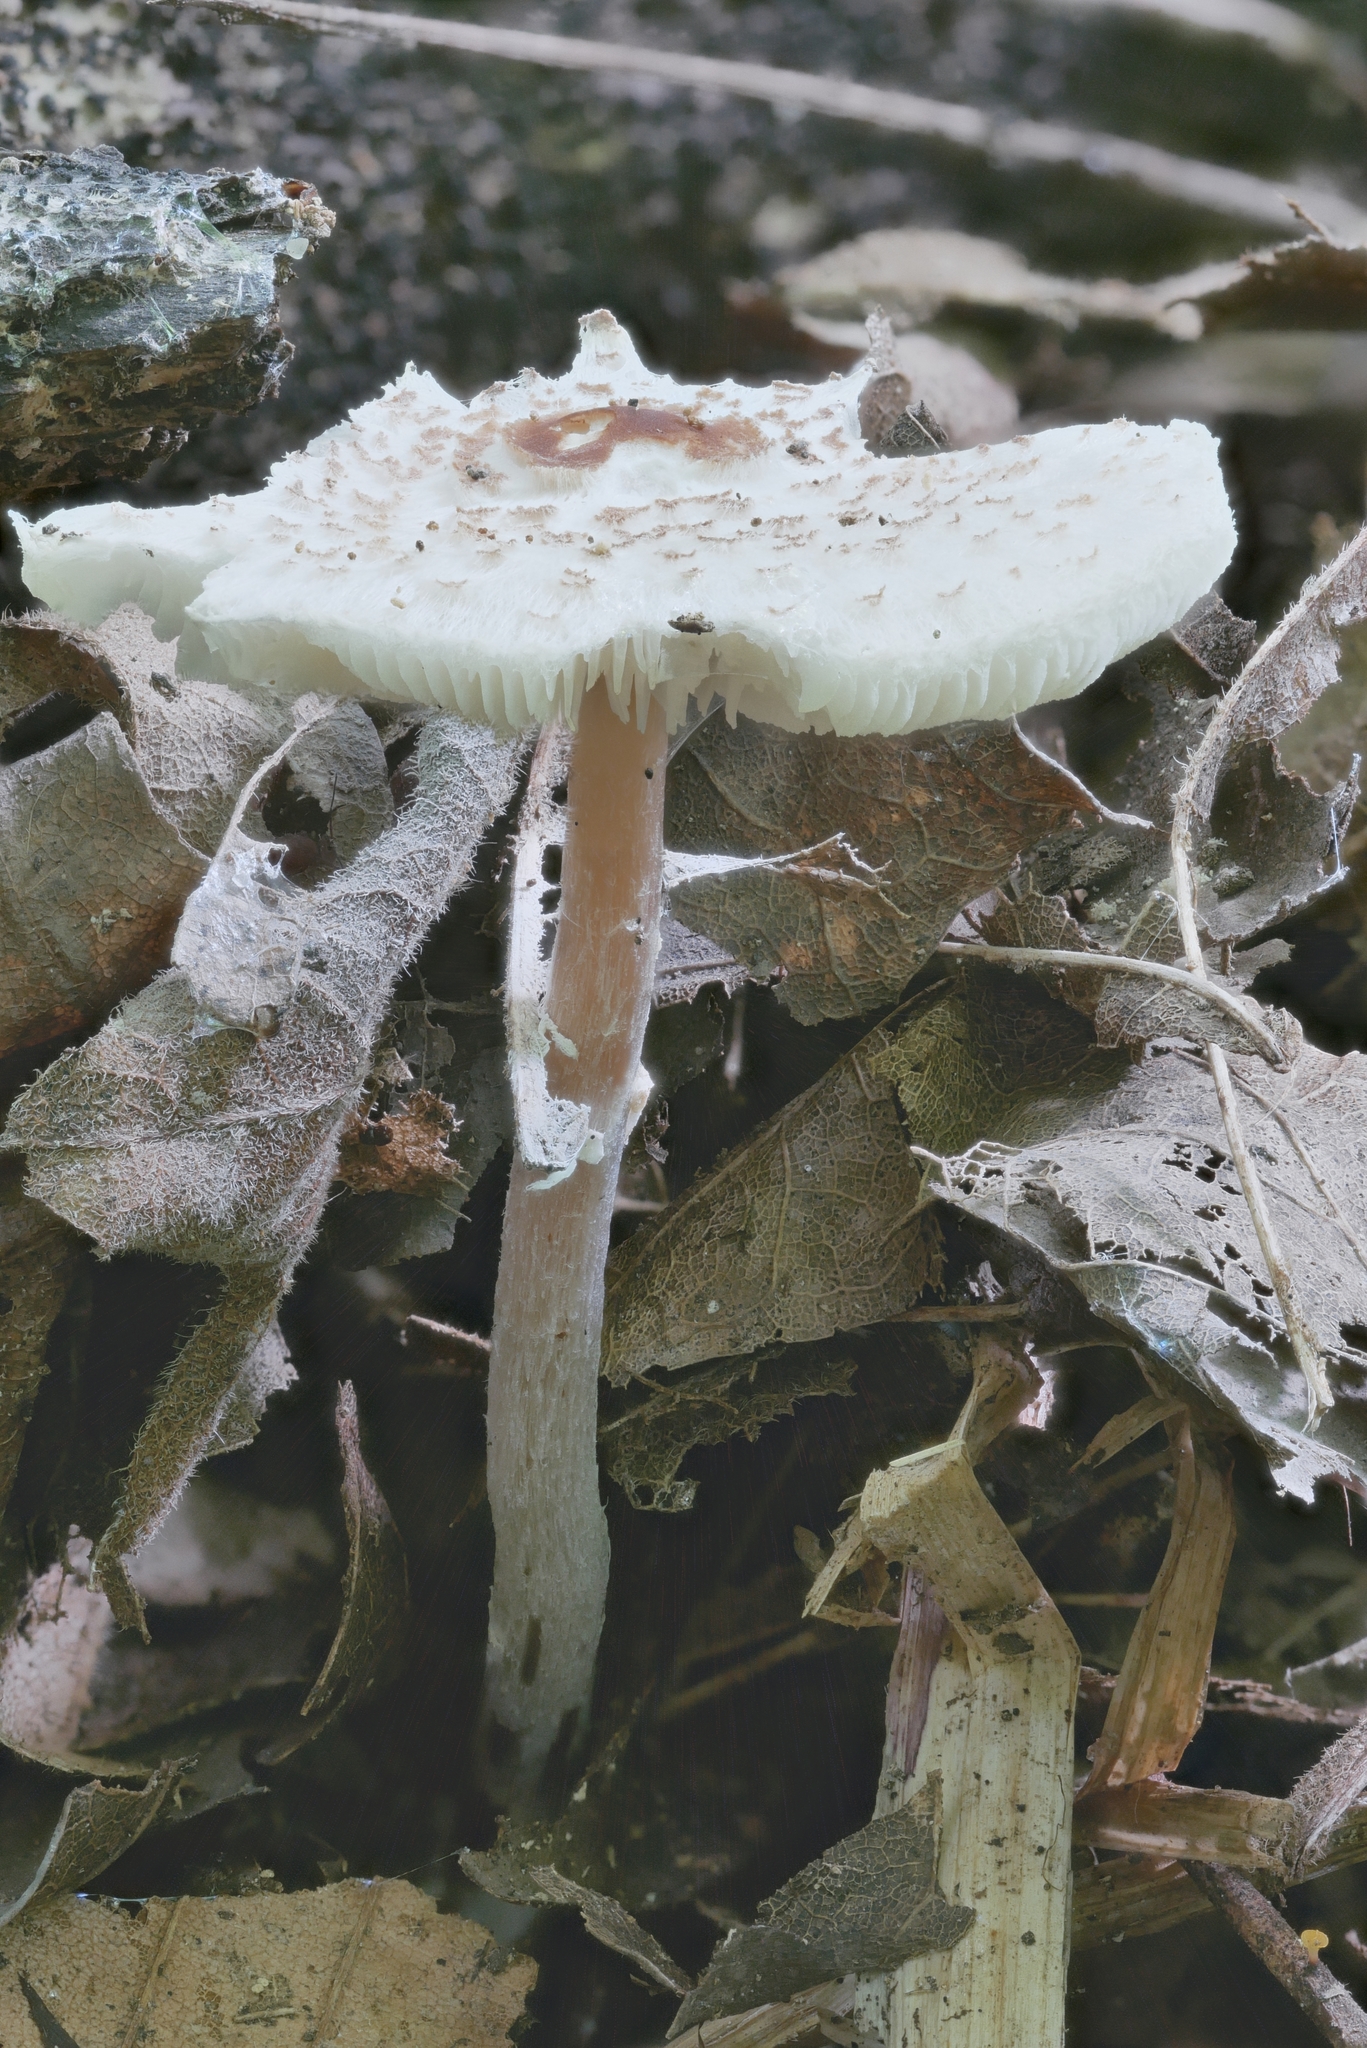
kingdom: Fungi
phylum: Basidiomycota
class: Agaricomycetes
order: Agaricales
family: Agaricaceae
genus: Lepiota
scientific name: Lepiota cristata
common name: Stinking dapperling
